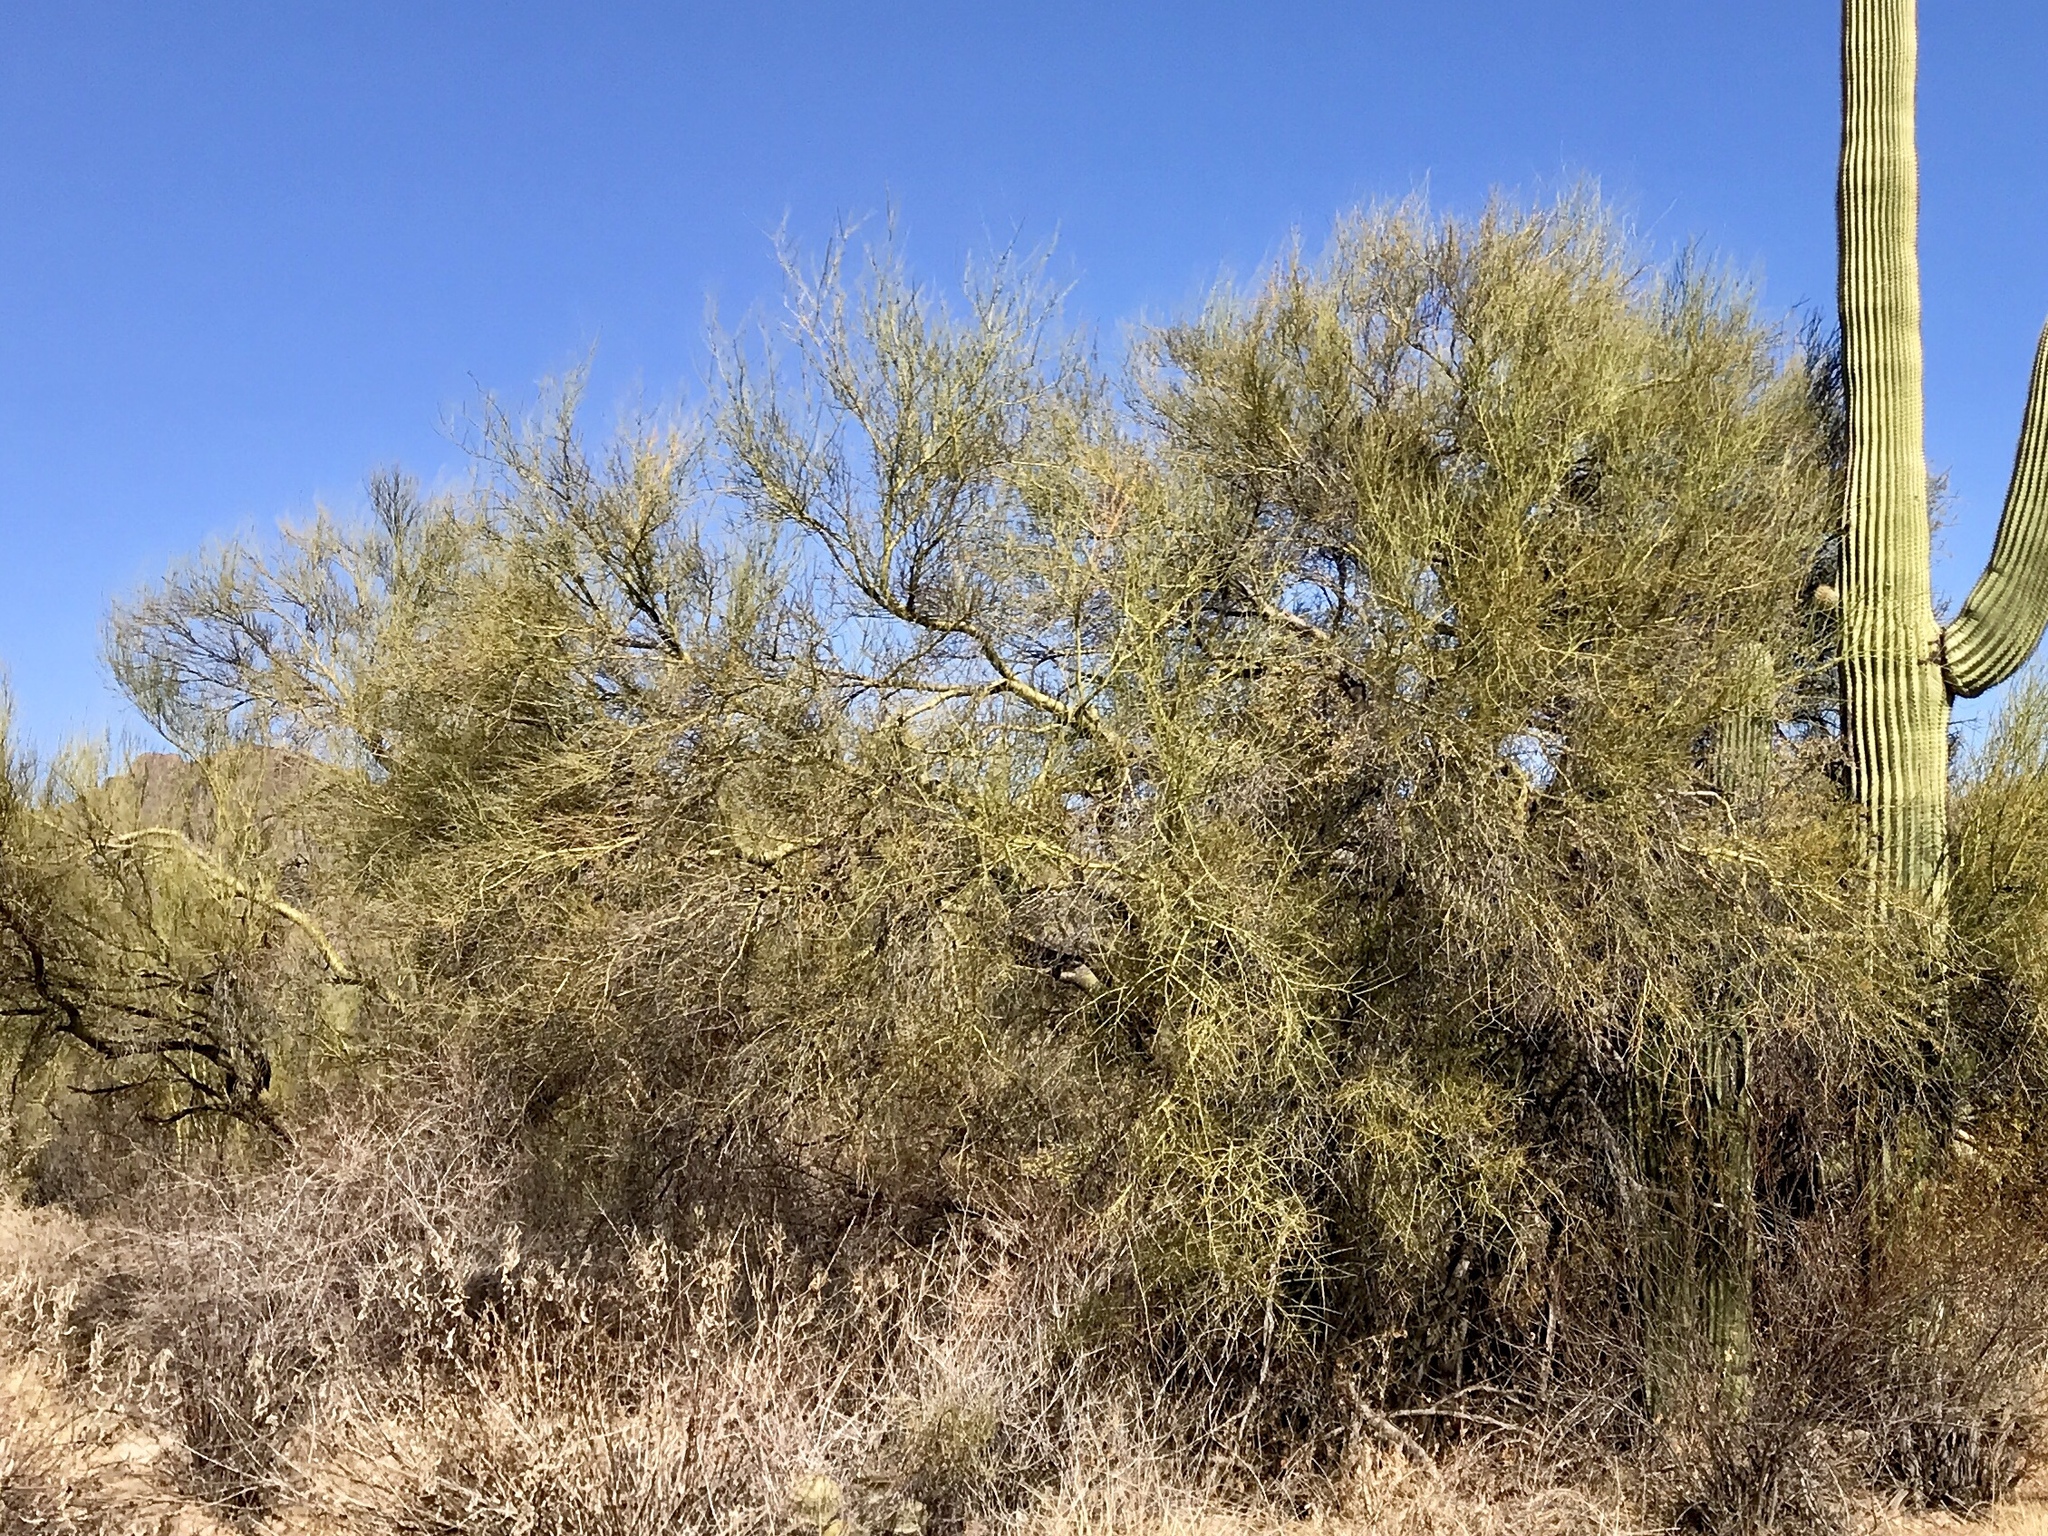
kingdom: Plantae
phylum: Tracheophyta
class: Magnoliopsida
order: Fabales
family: Fabaceae
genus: Parkinsonia
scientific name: Parkinsonia microphylla
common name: Yellow paloverde
